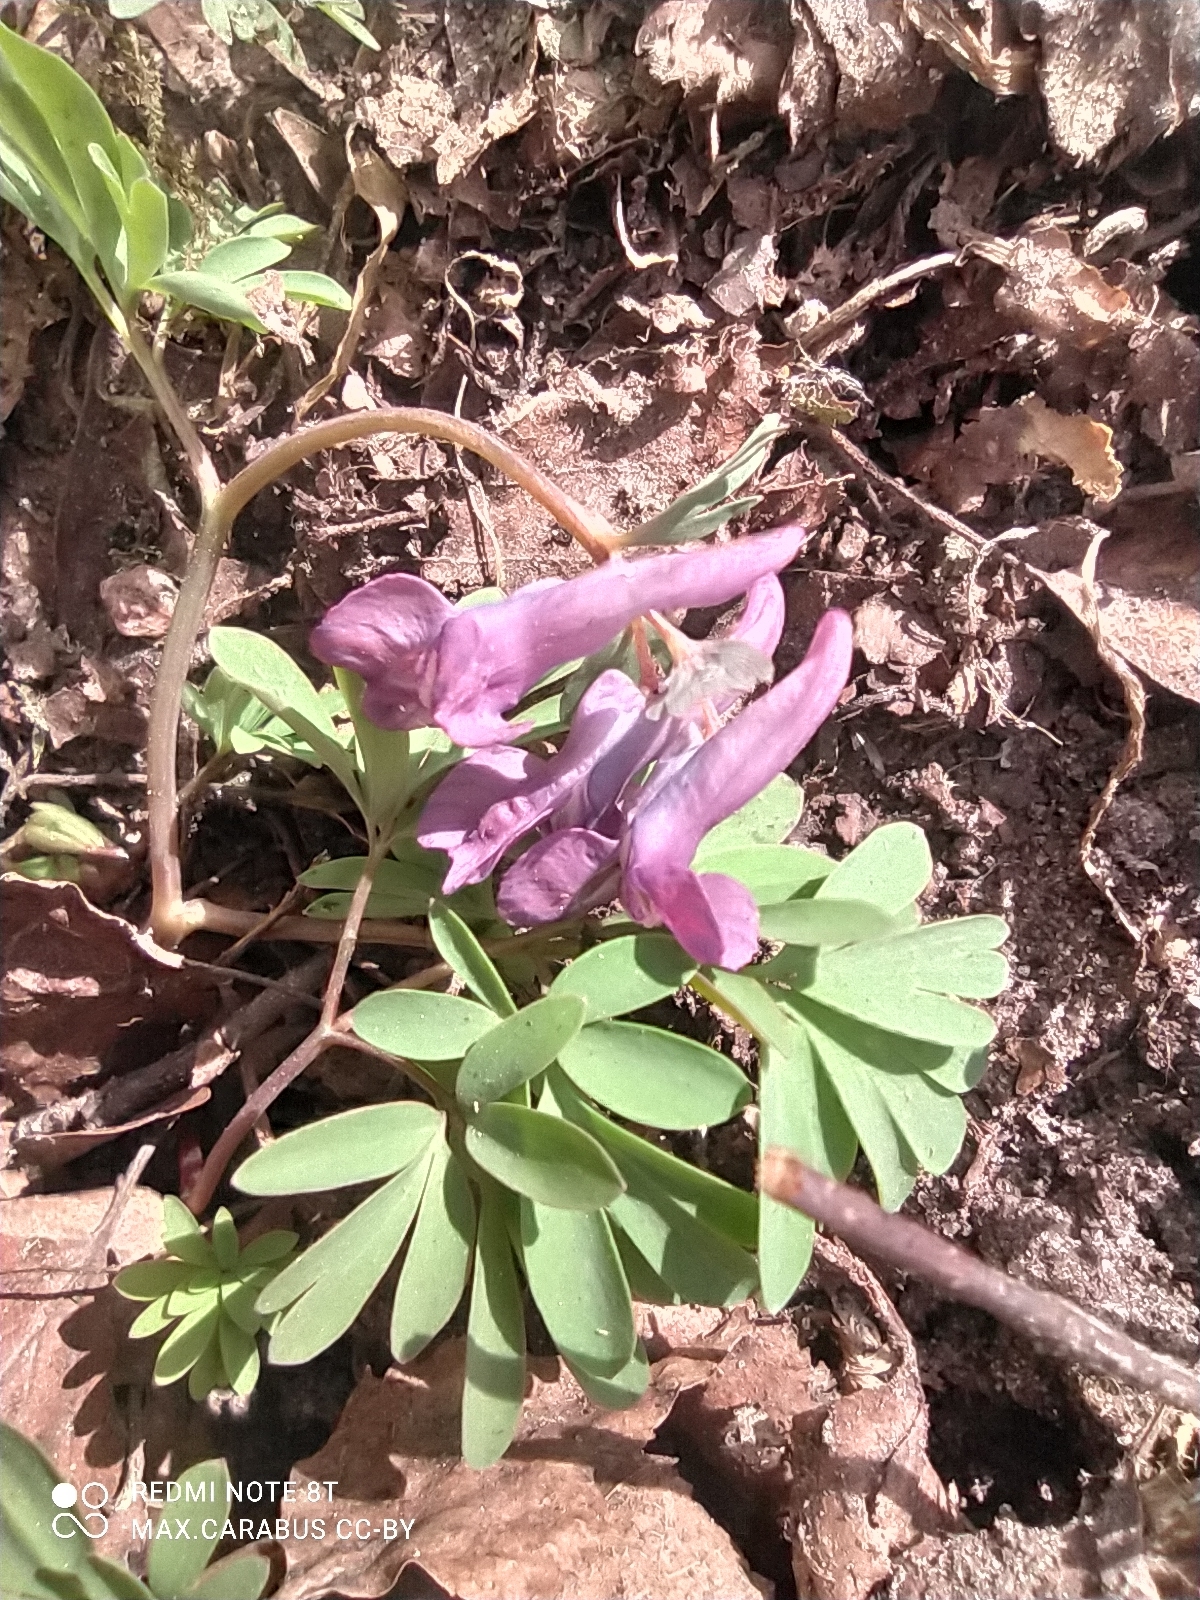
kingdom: Plantae
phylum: Tracheophyta
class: Magnoliopsida
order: Ranunculales
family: Papaveraceae
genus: Corydalis
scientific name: Corydalis solida
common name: Bird-in-a-bush
